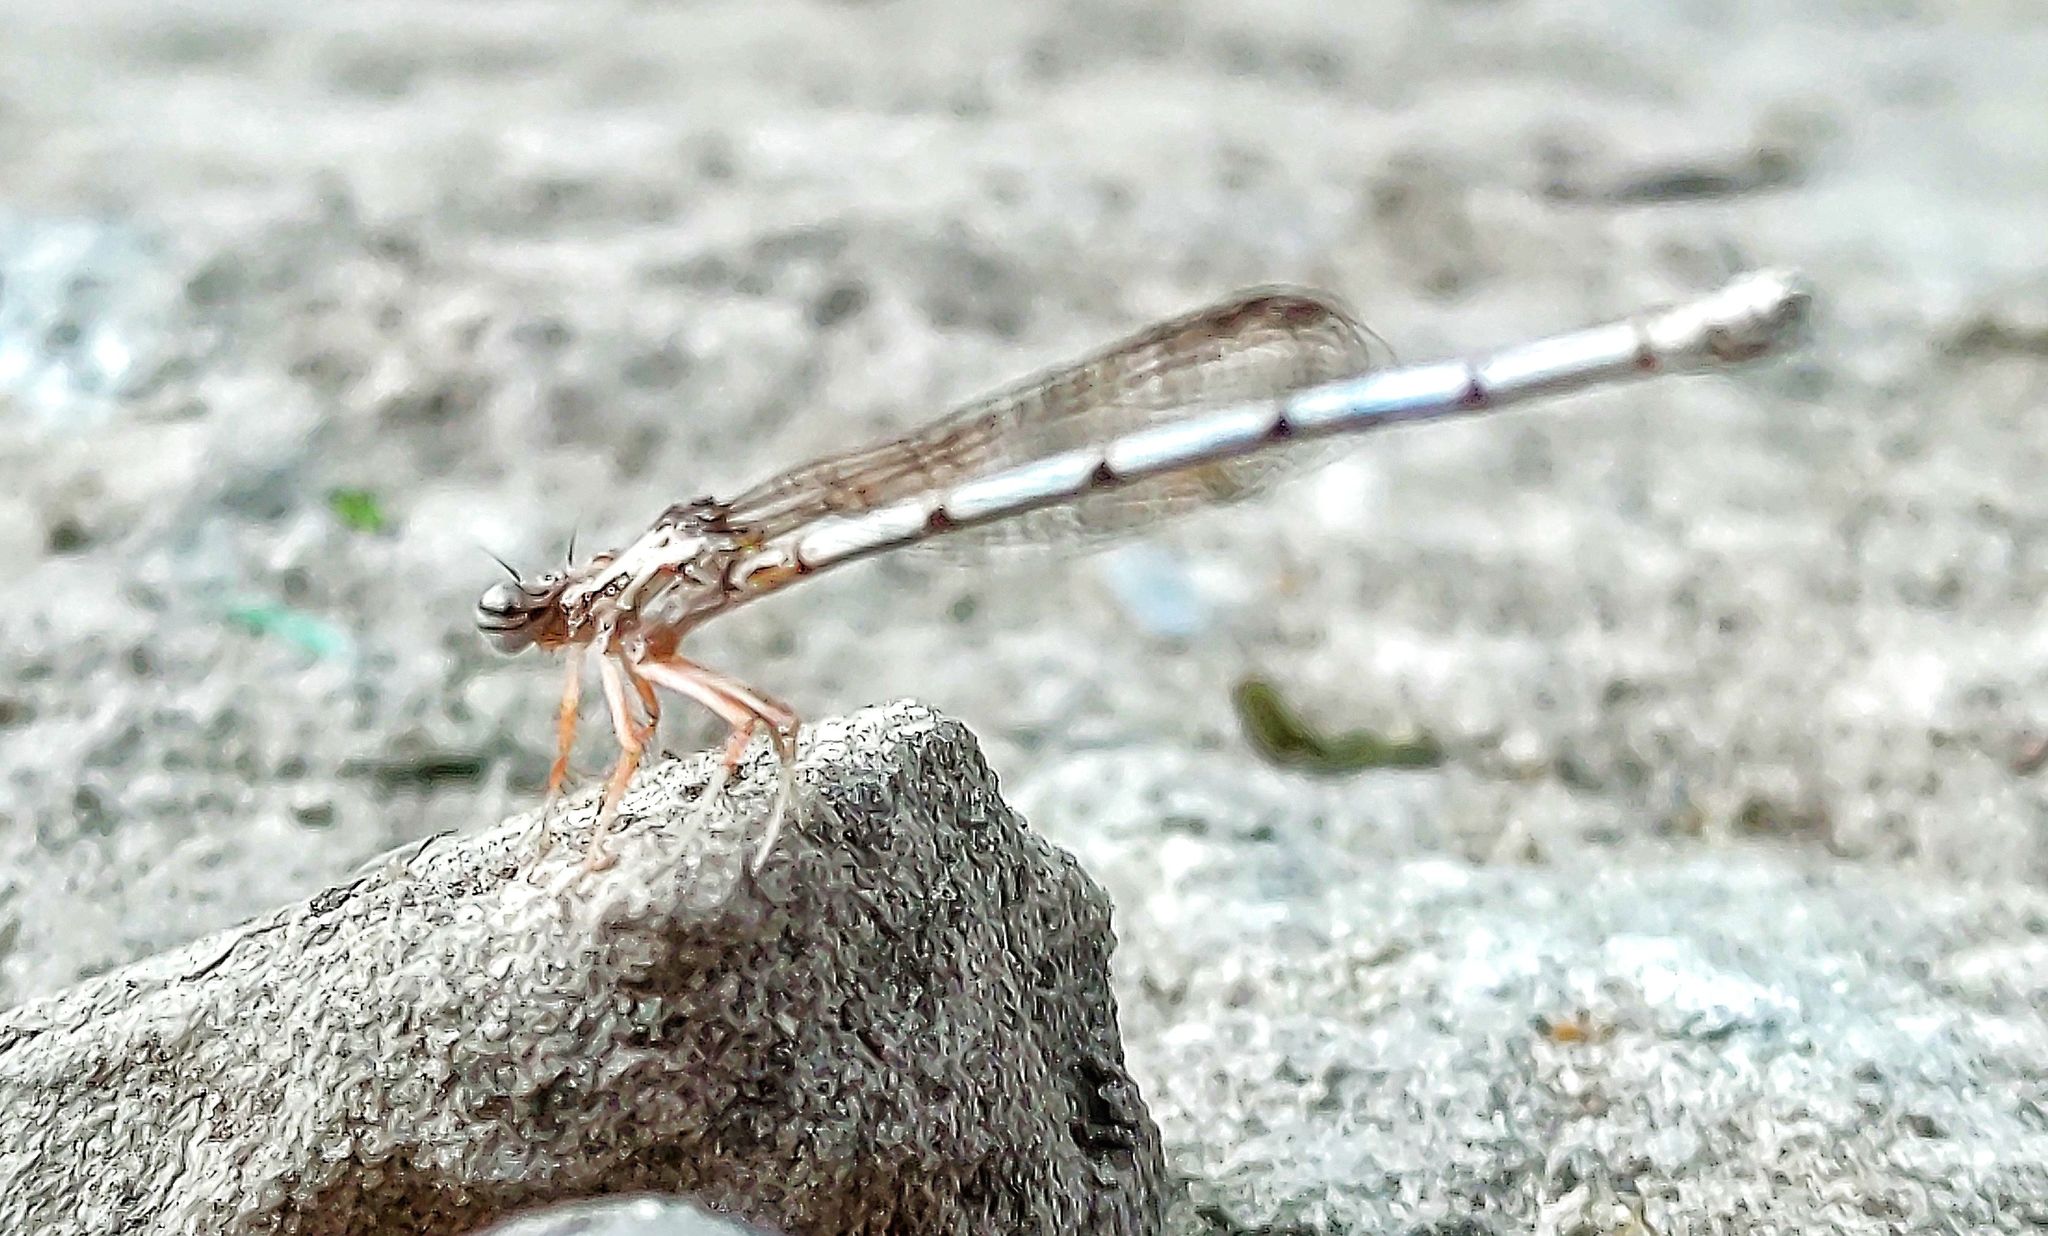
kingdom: Animalia
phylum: Arthropoda
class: Insecta
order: Odonata
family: Platycnemididae
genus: Copera
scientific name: Copera marginipes
